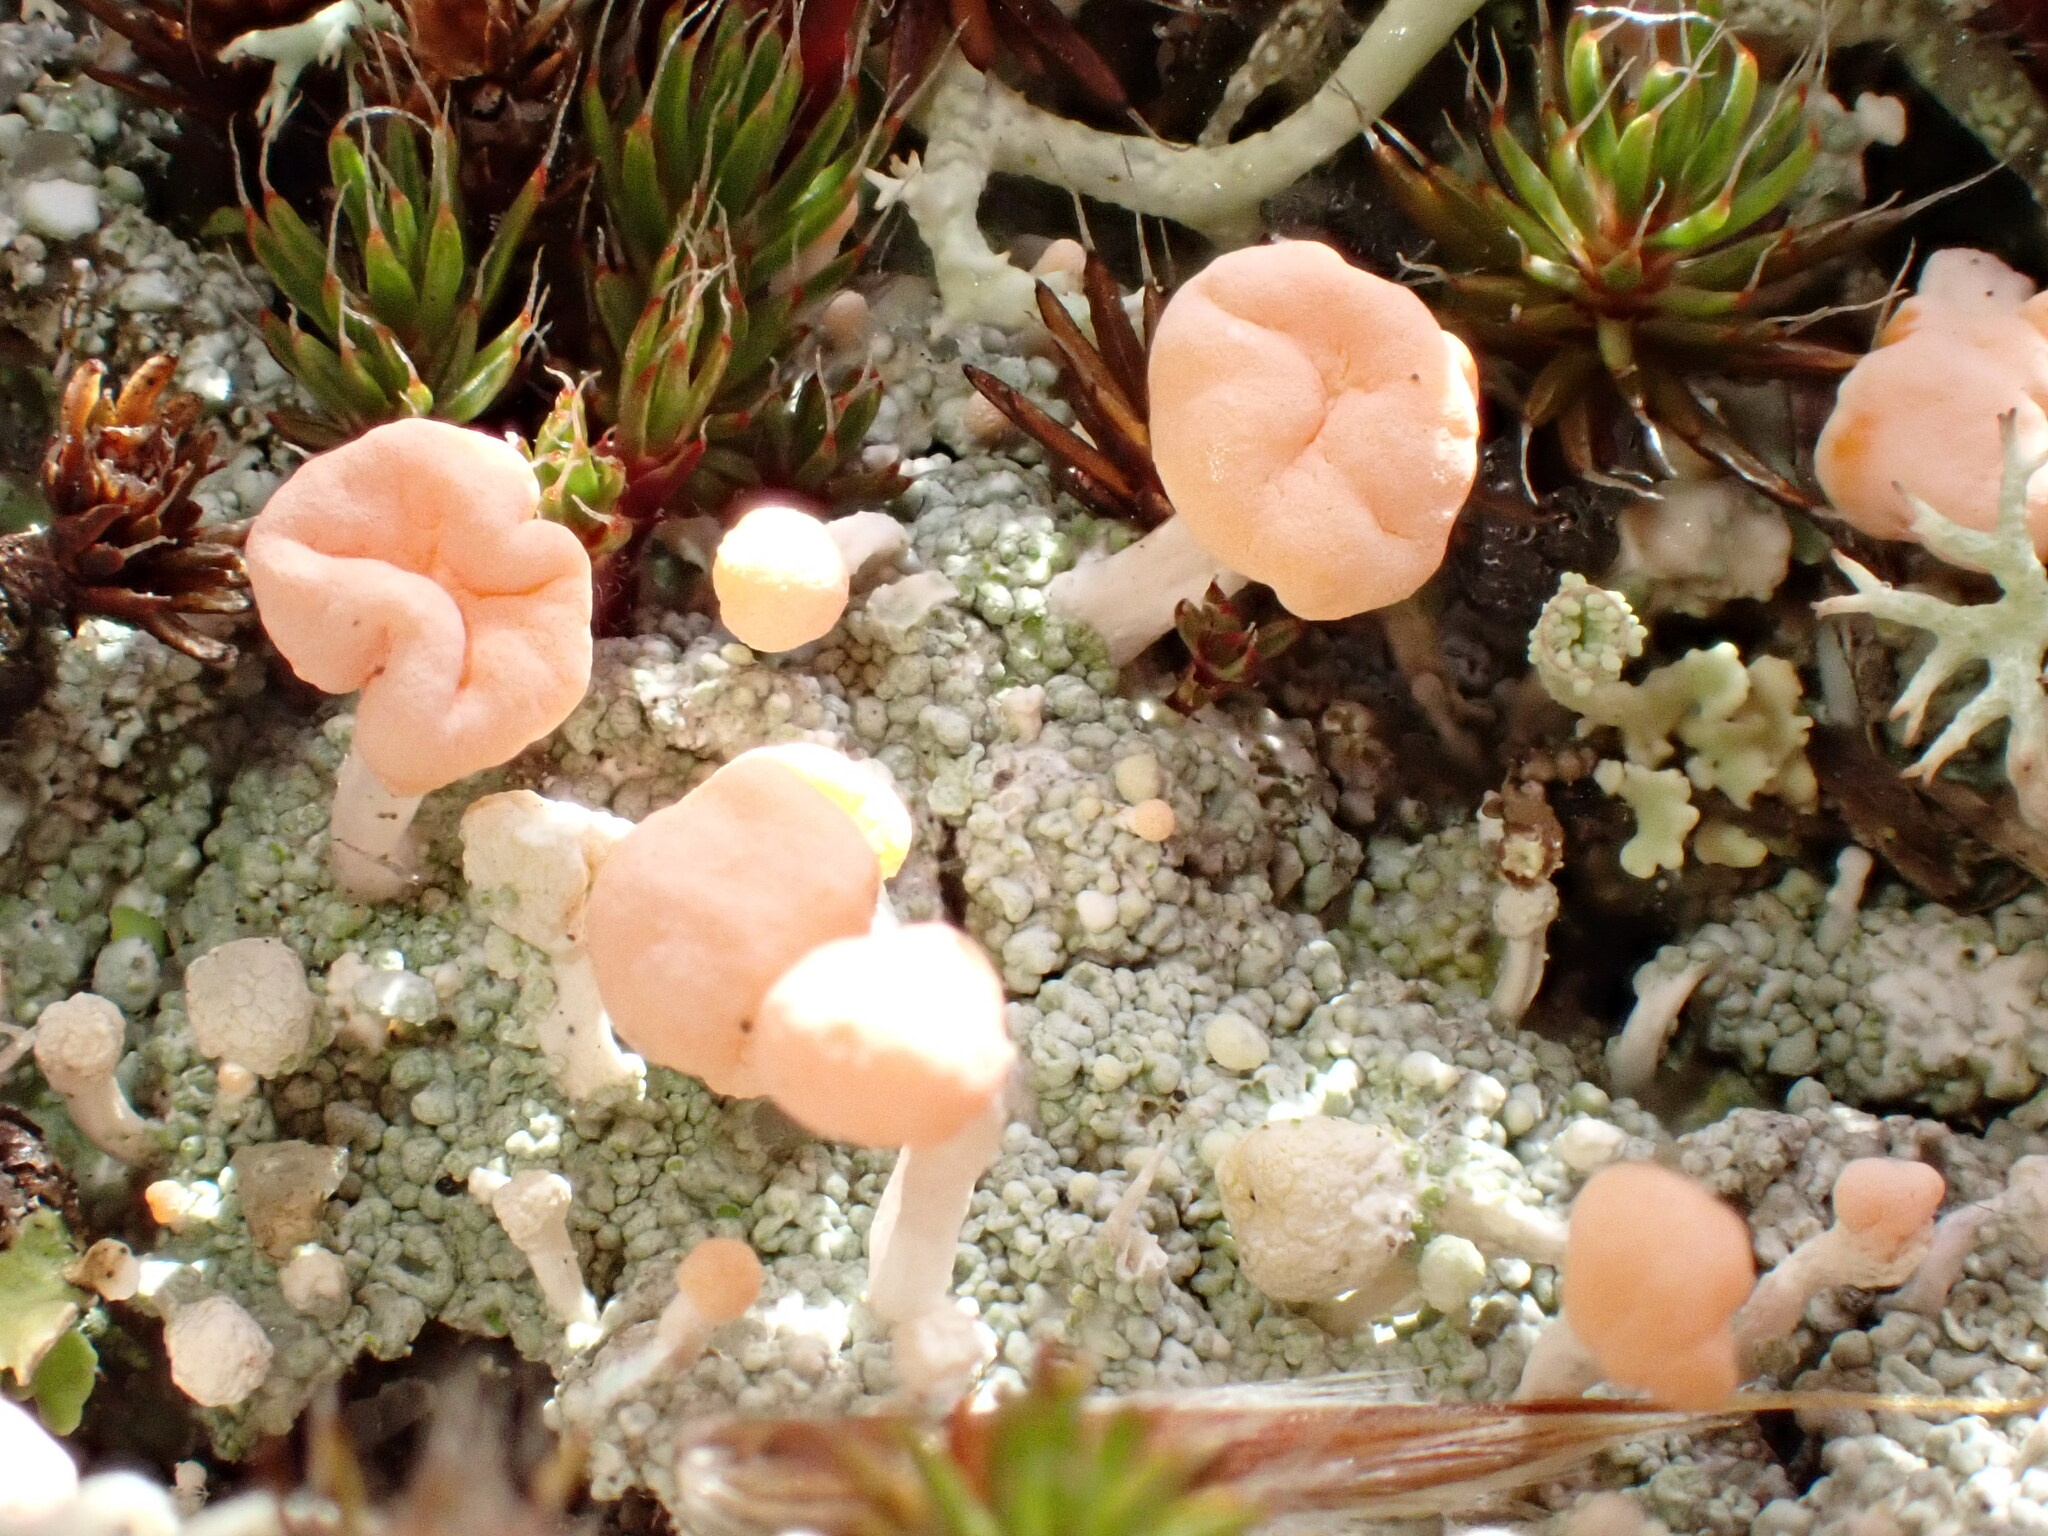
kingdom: Fungi
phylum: Ascomycota
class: Lecanoromycetes
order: Pertusariales
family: Icmadophilaceae
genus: Dibaeis
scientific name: Dibaeis baeomyces
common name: Pink earth lichen
